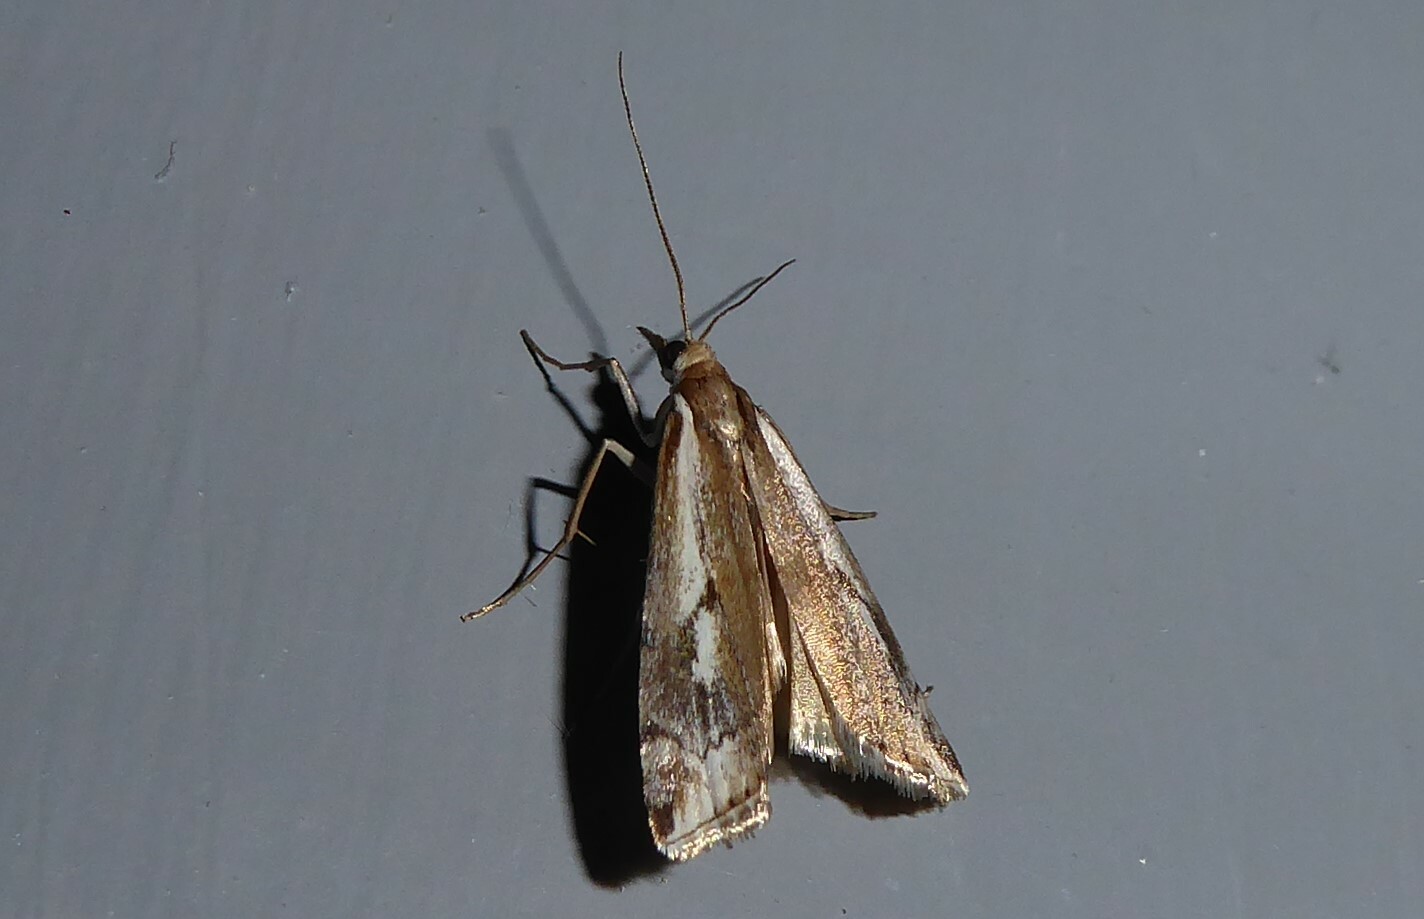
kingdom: Animalia
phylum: Arthropoda
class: Insecta
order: Lepidoptera
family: Crambidae
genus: Orocrambus
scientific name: Orocrambus vulgaris
